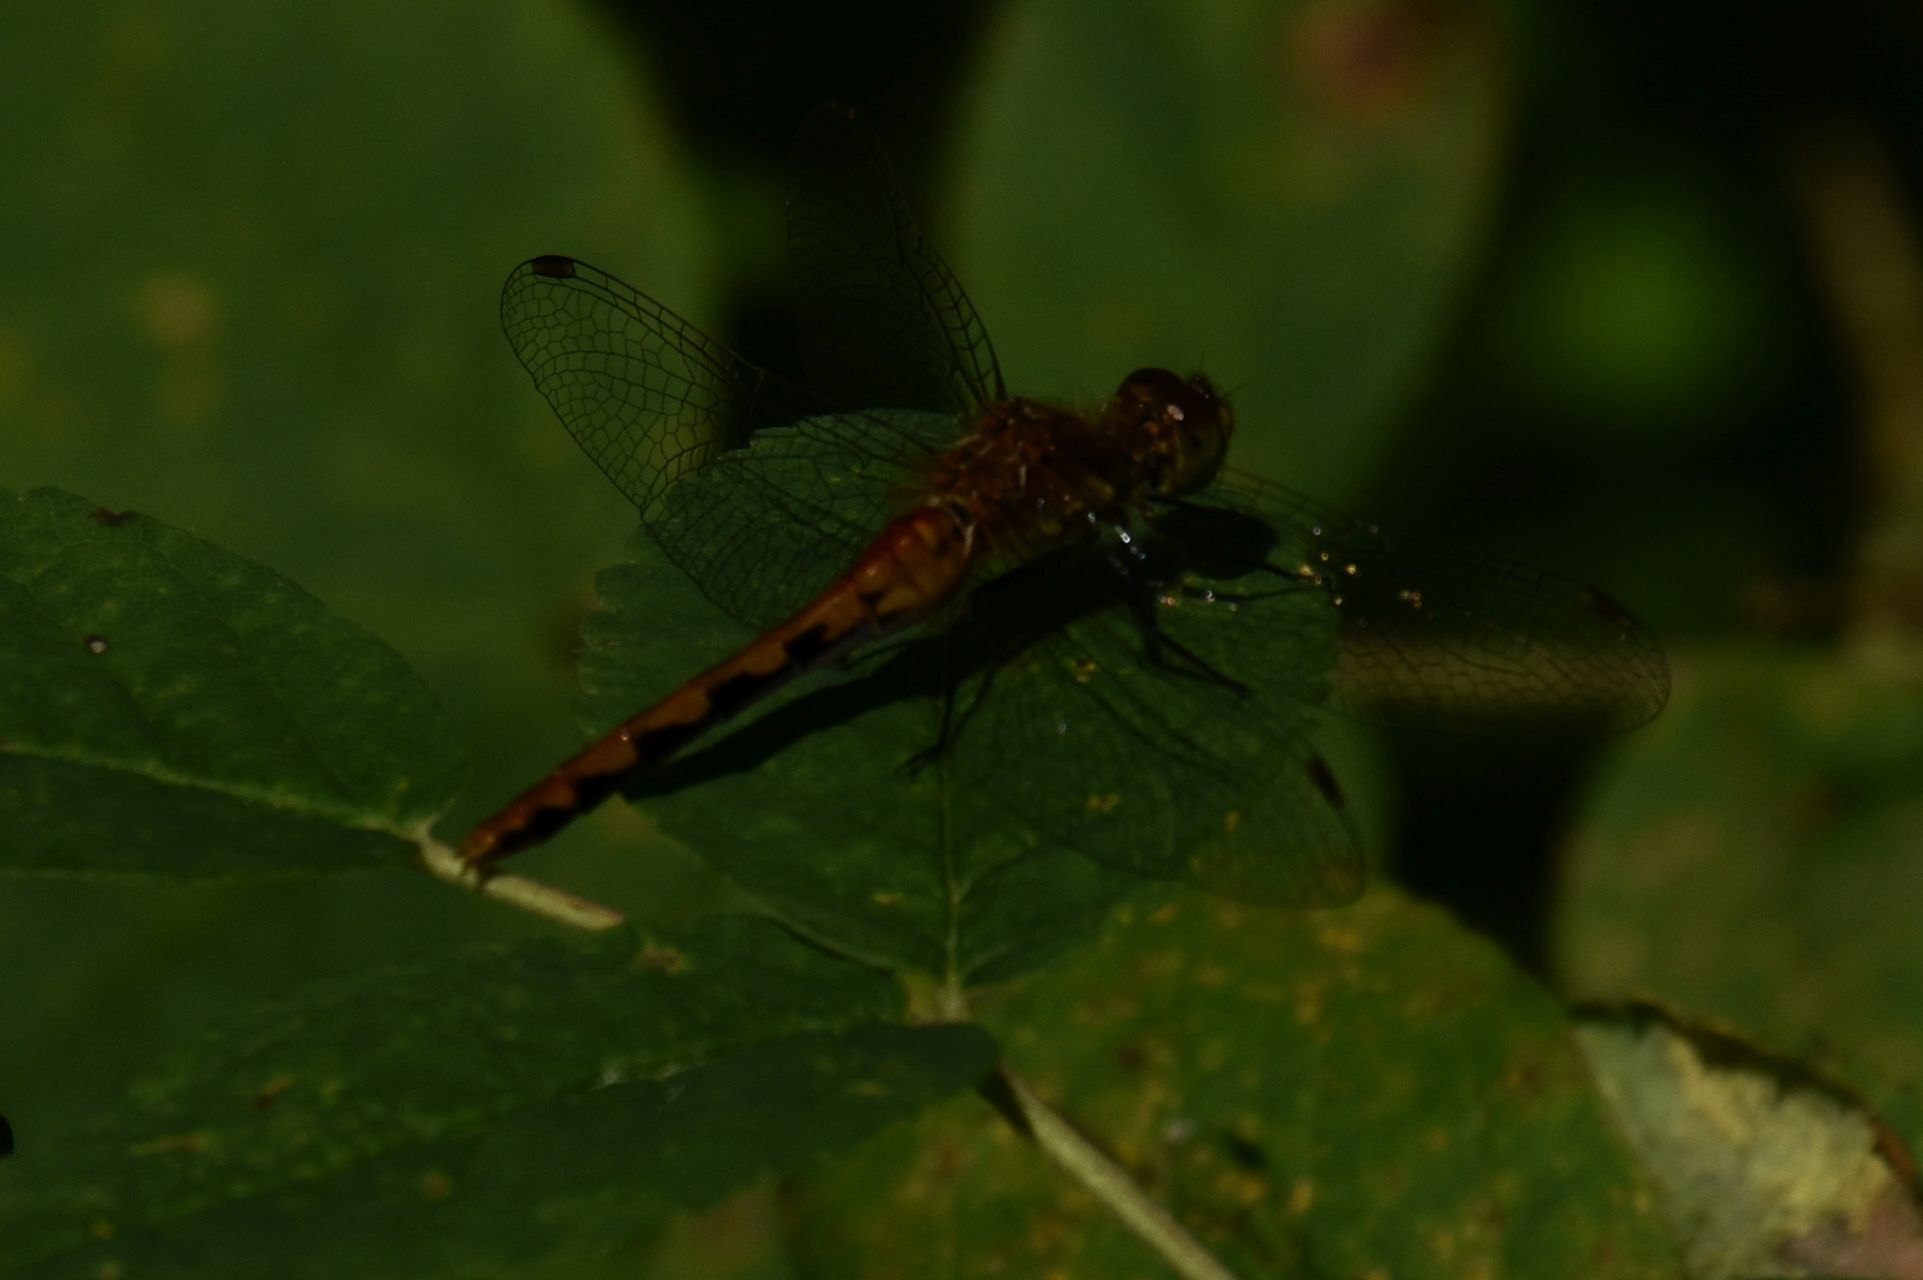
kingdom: Animalia
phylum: Arthropoda
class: Insecta
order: Odonata
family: Libellulidae
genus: Sympetrum
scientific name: Sympetrum obtrusum
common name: White-faced meadowhawk
